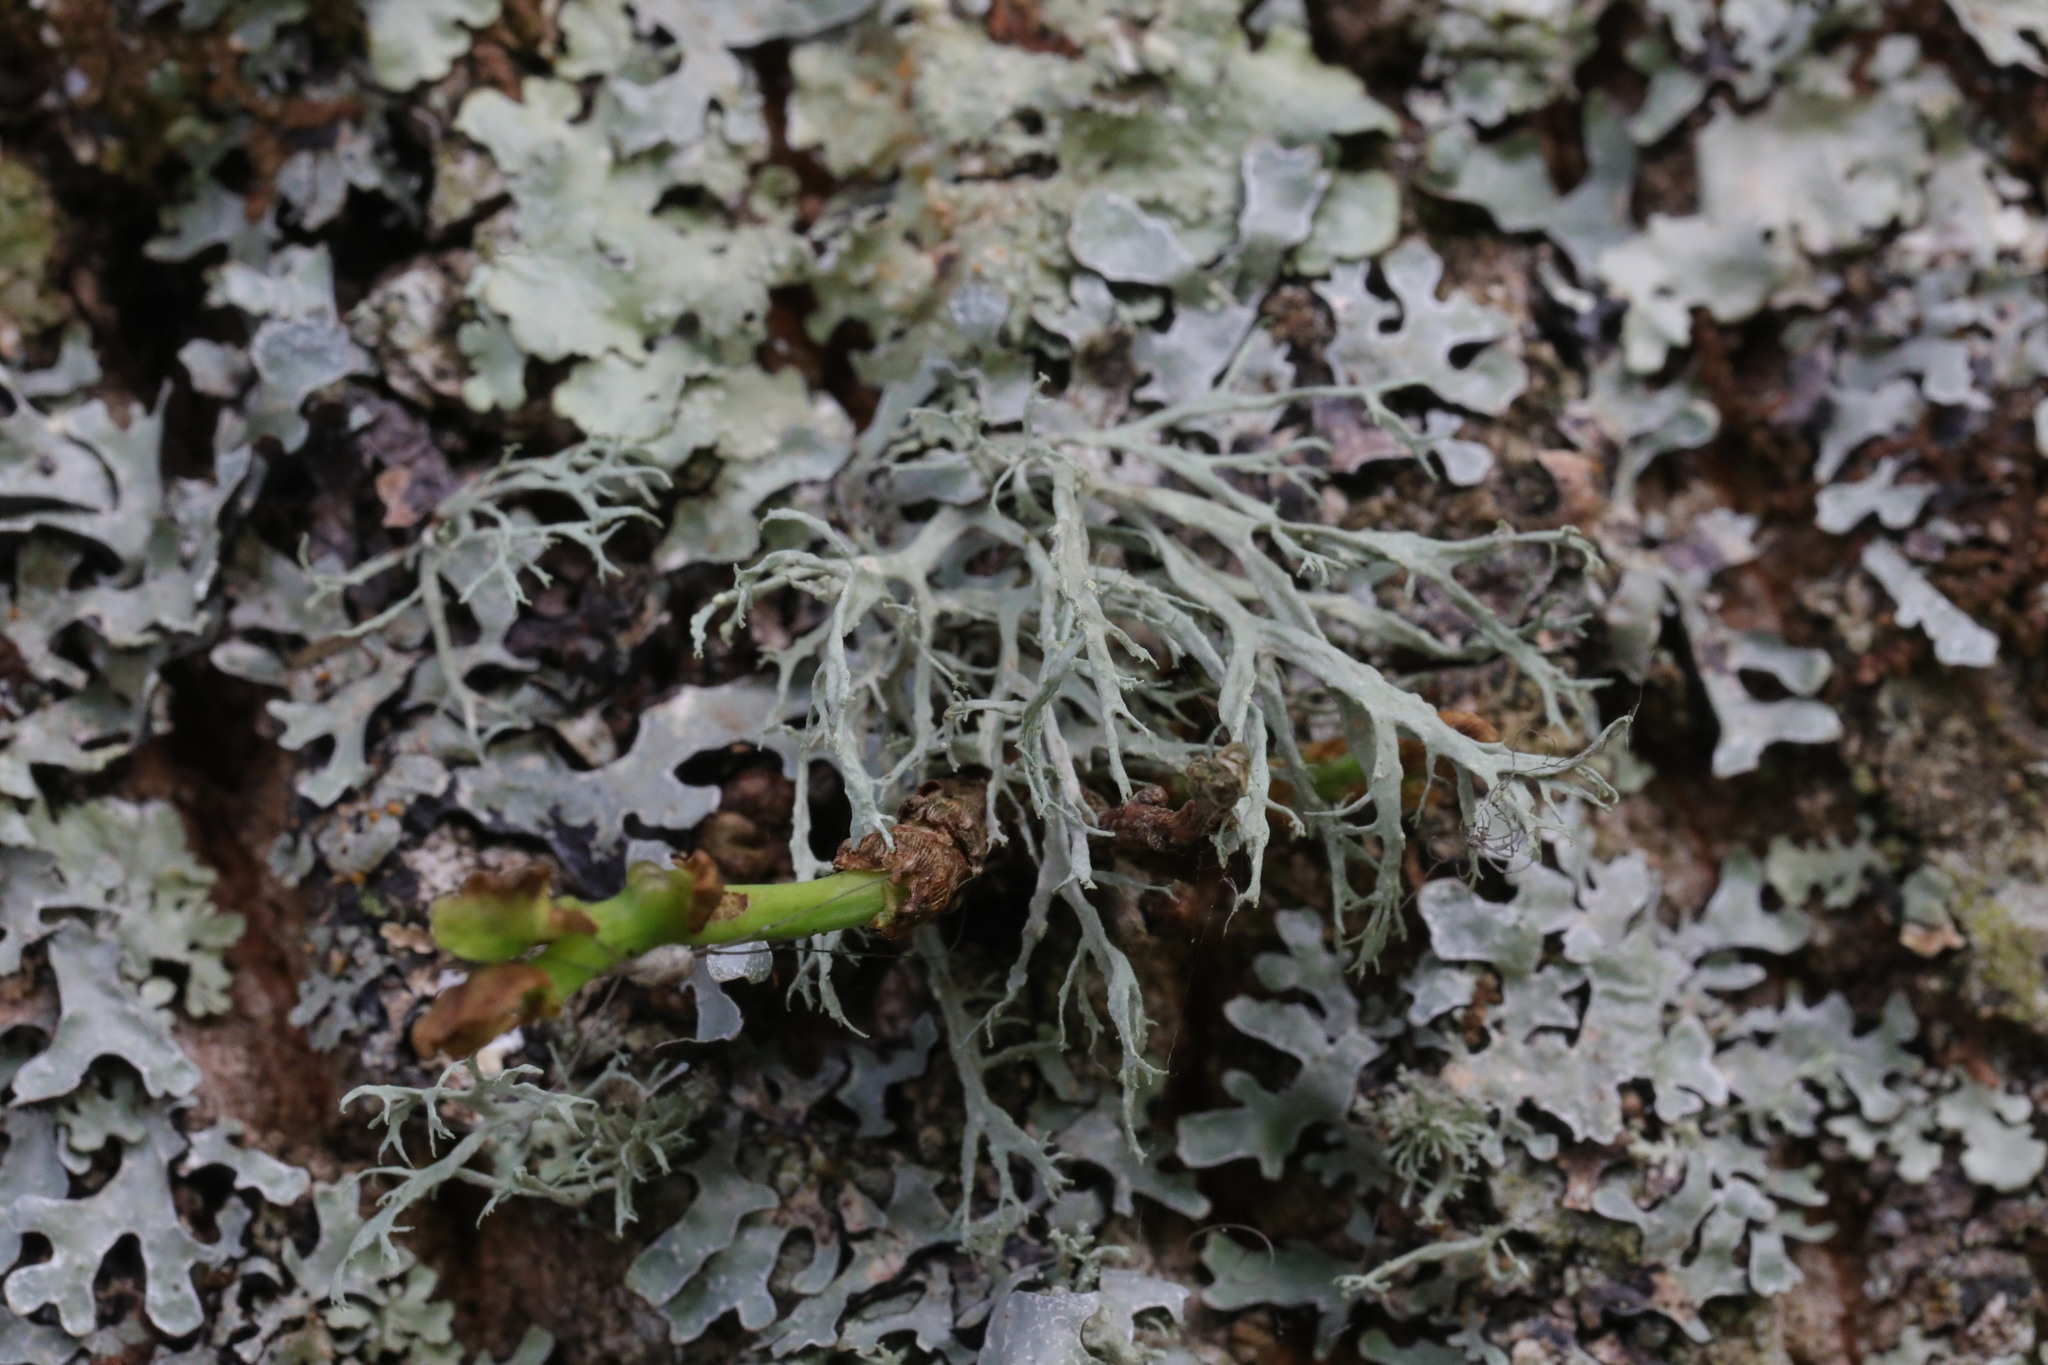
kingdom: Fungi
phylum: Ascomycota
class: Lecanoromycetes
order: Lecanorales
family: Ramalinaceae
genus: Ramalina
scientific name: Ramalina farinacea
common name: Farinose cartilage lichen
